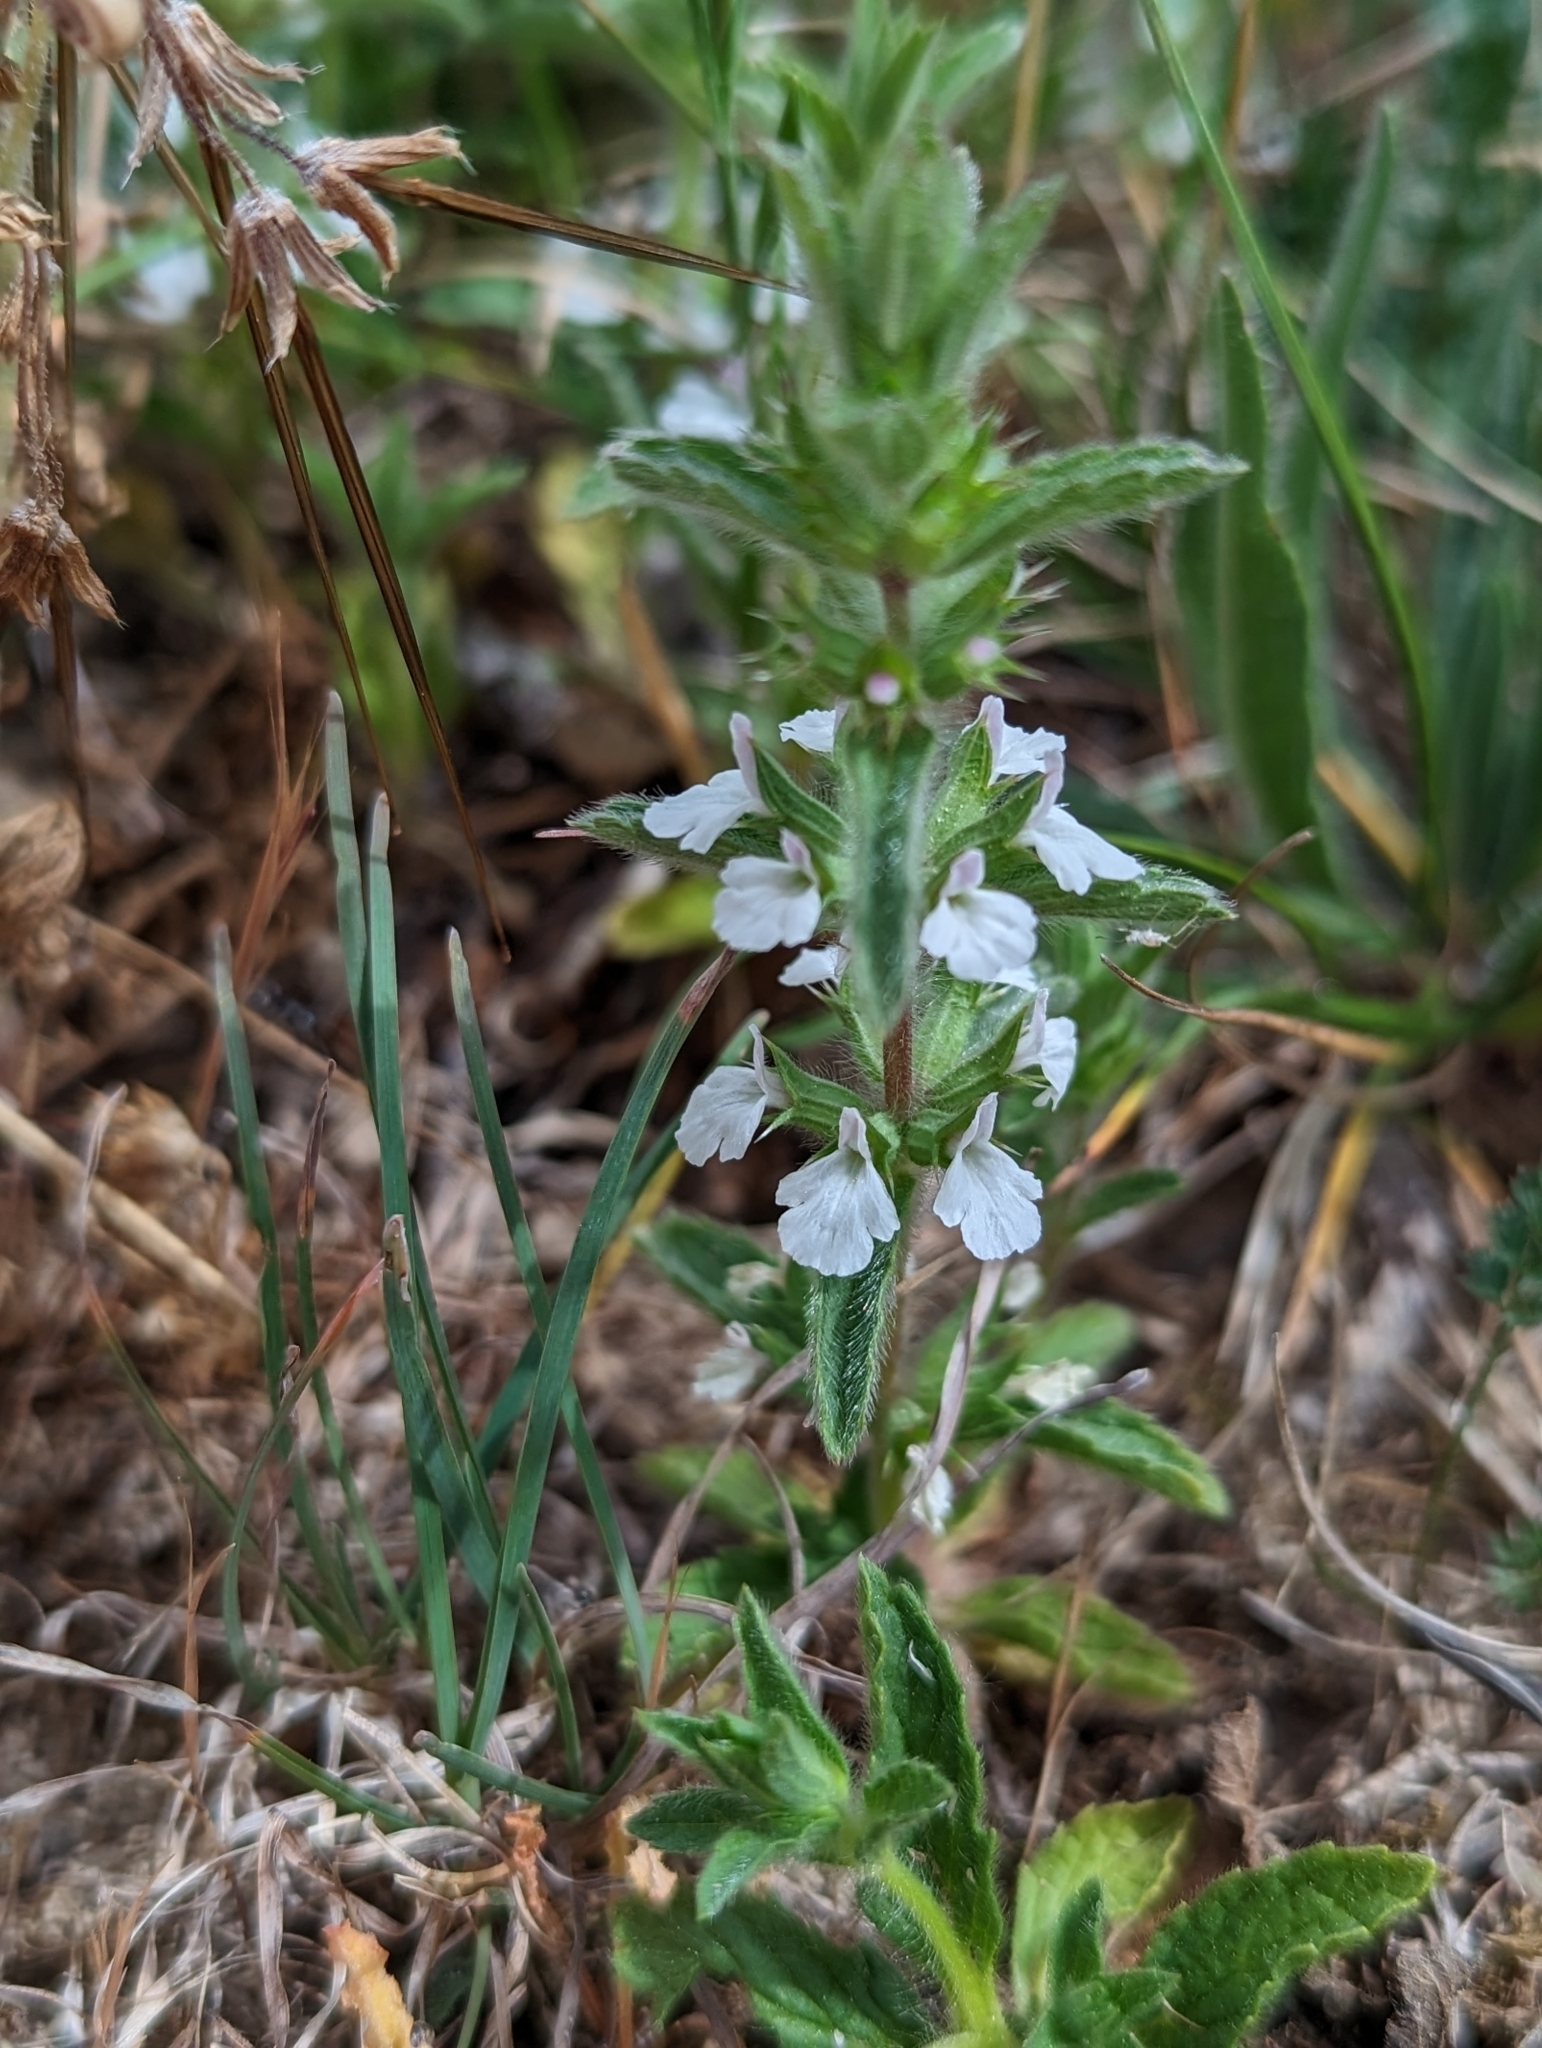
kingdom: Plantae
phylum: Tracheophyta
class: Magnoliopsida
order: Lamiales
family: Lamiaceae
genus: Sideritis
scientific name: Sideritis romana
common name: Simplebeak ironwort
